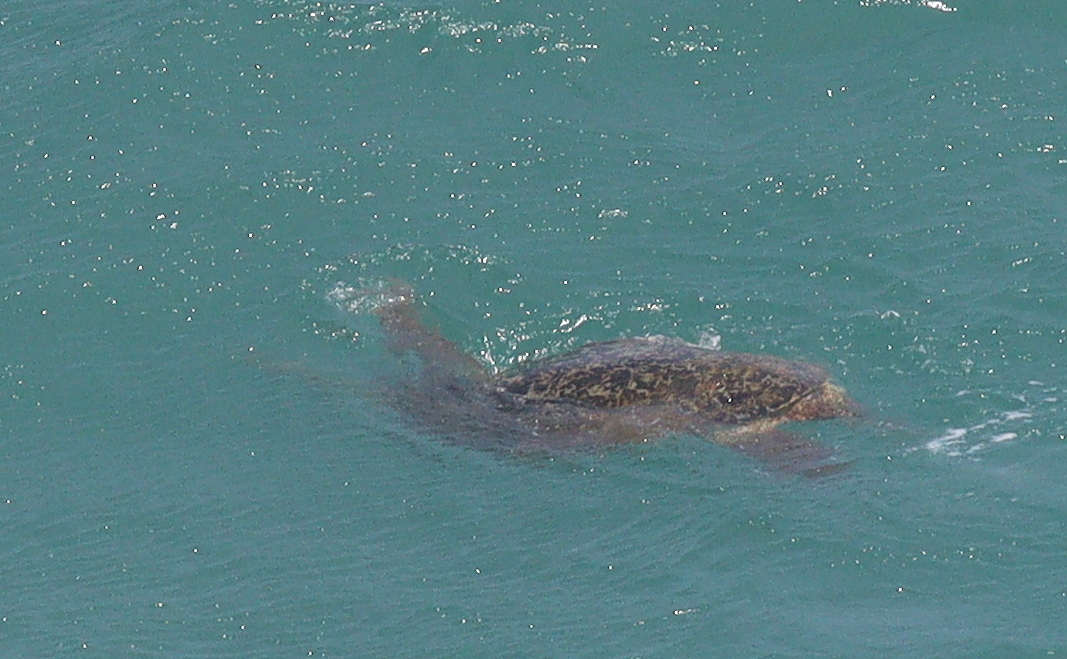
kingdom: Animalia
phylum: Chordata
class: Testudines
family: Cheloniidae
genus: Chelonia
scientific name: Chelonia mydas
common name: Green turtle
